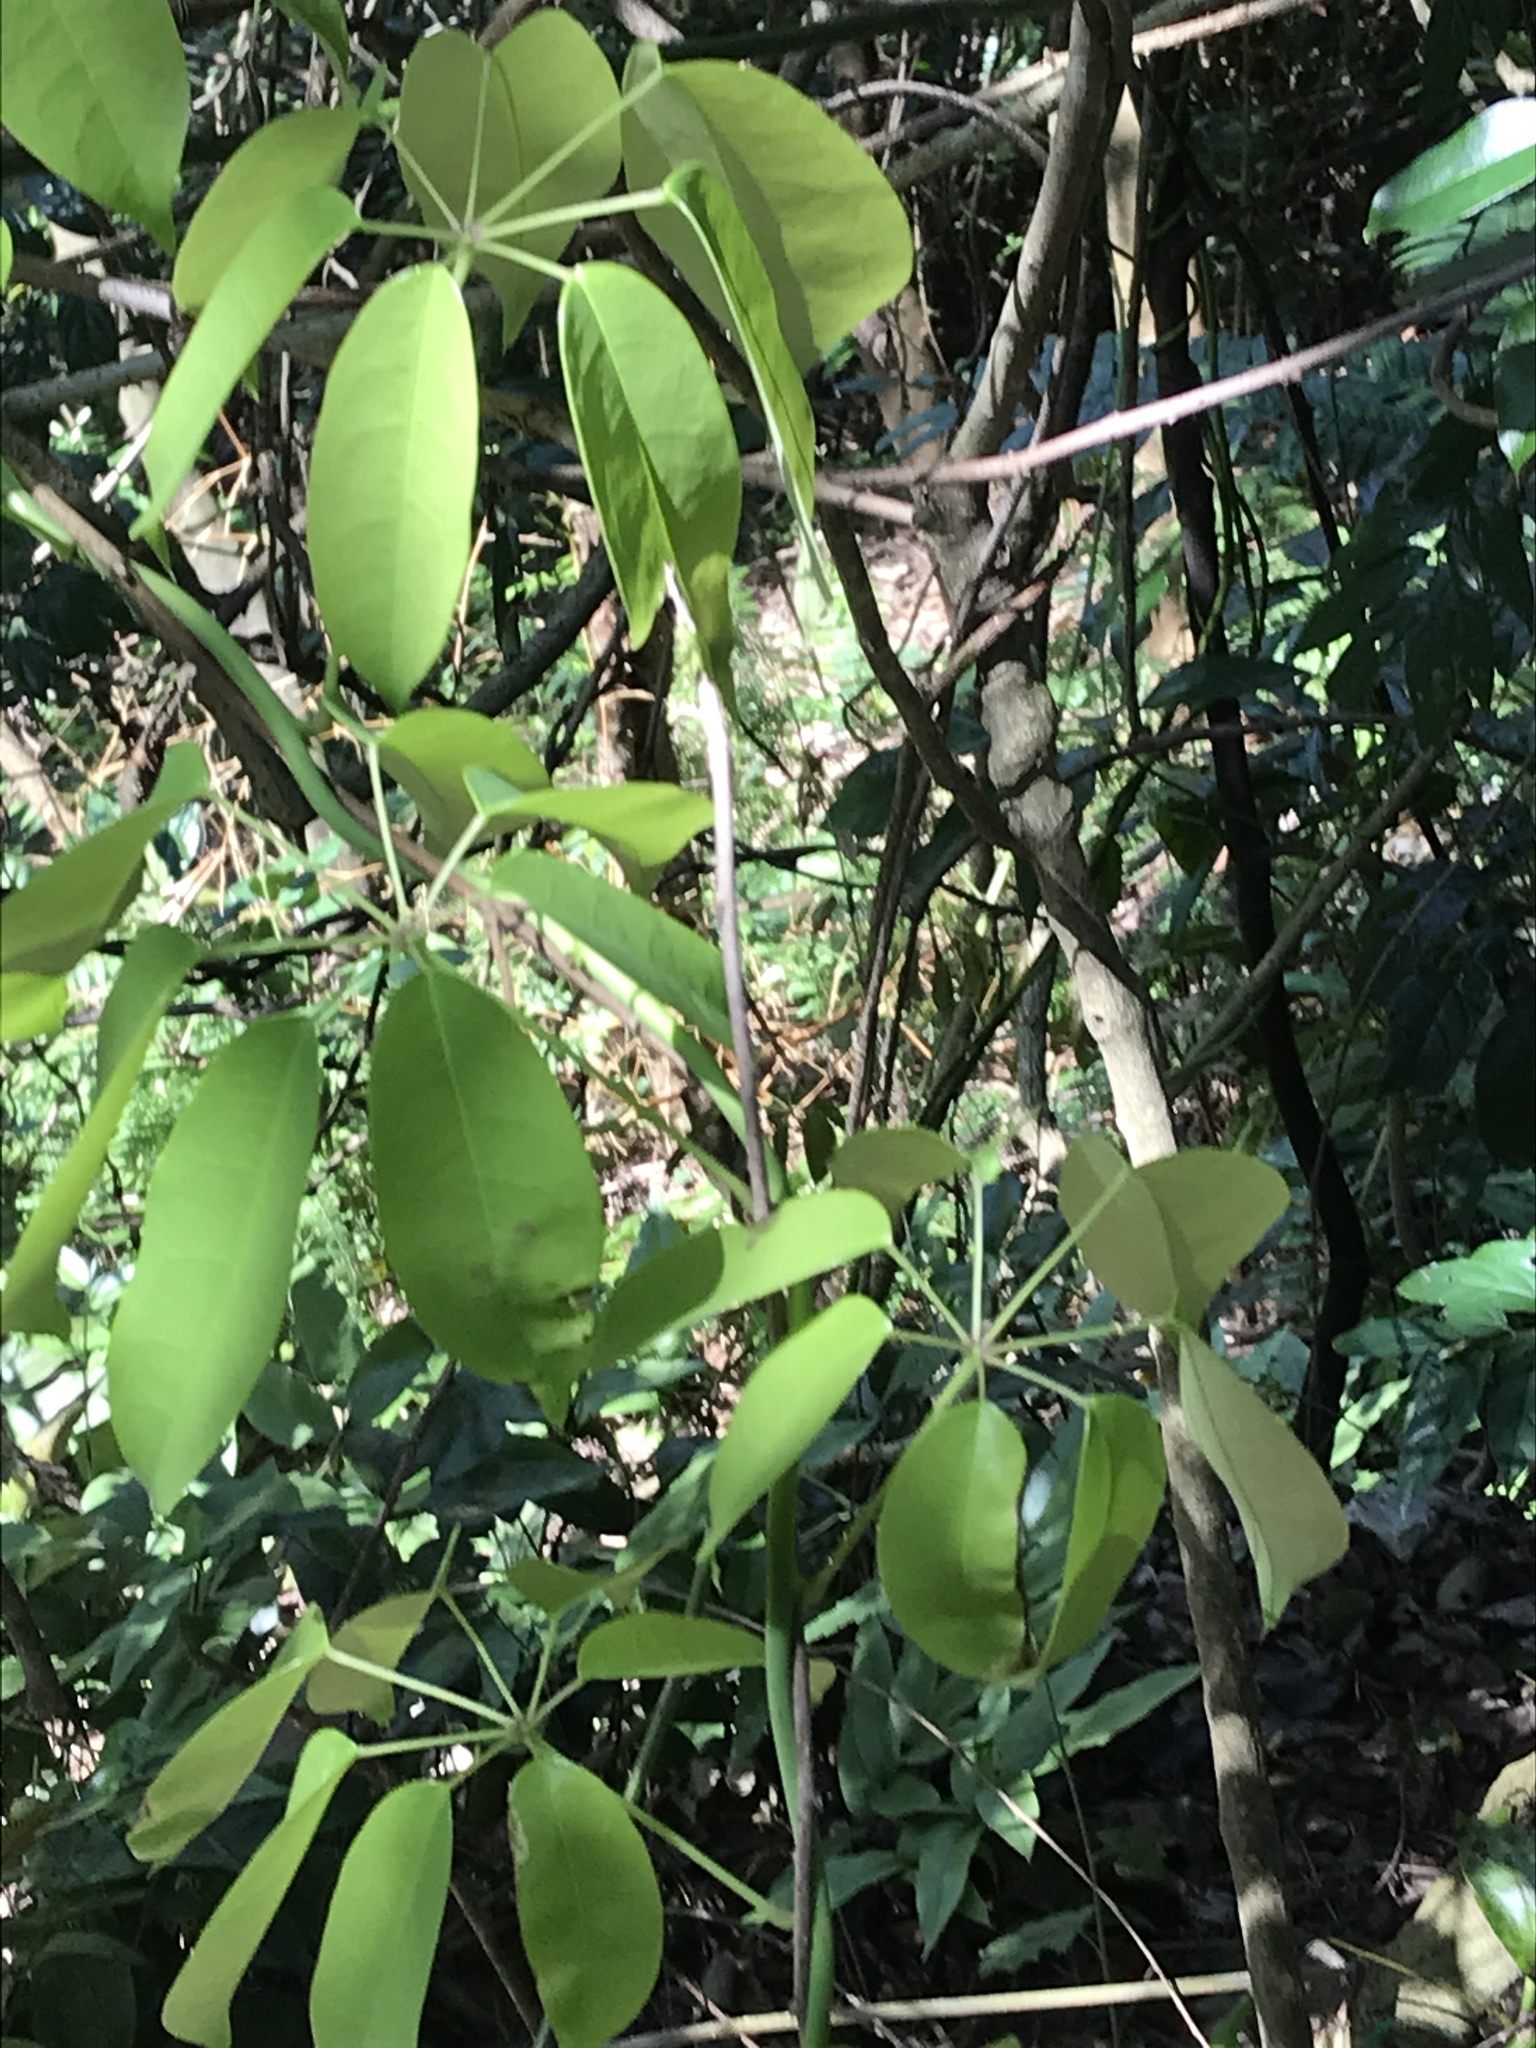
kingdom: Plantae
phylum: Tracheophyta
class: Magnoliopsida
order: Ranunculales
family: Lardizabalaceae
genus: Stauntonia
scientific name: Stauntonia obovata
